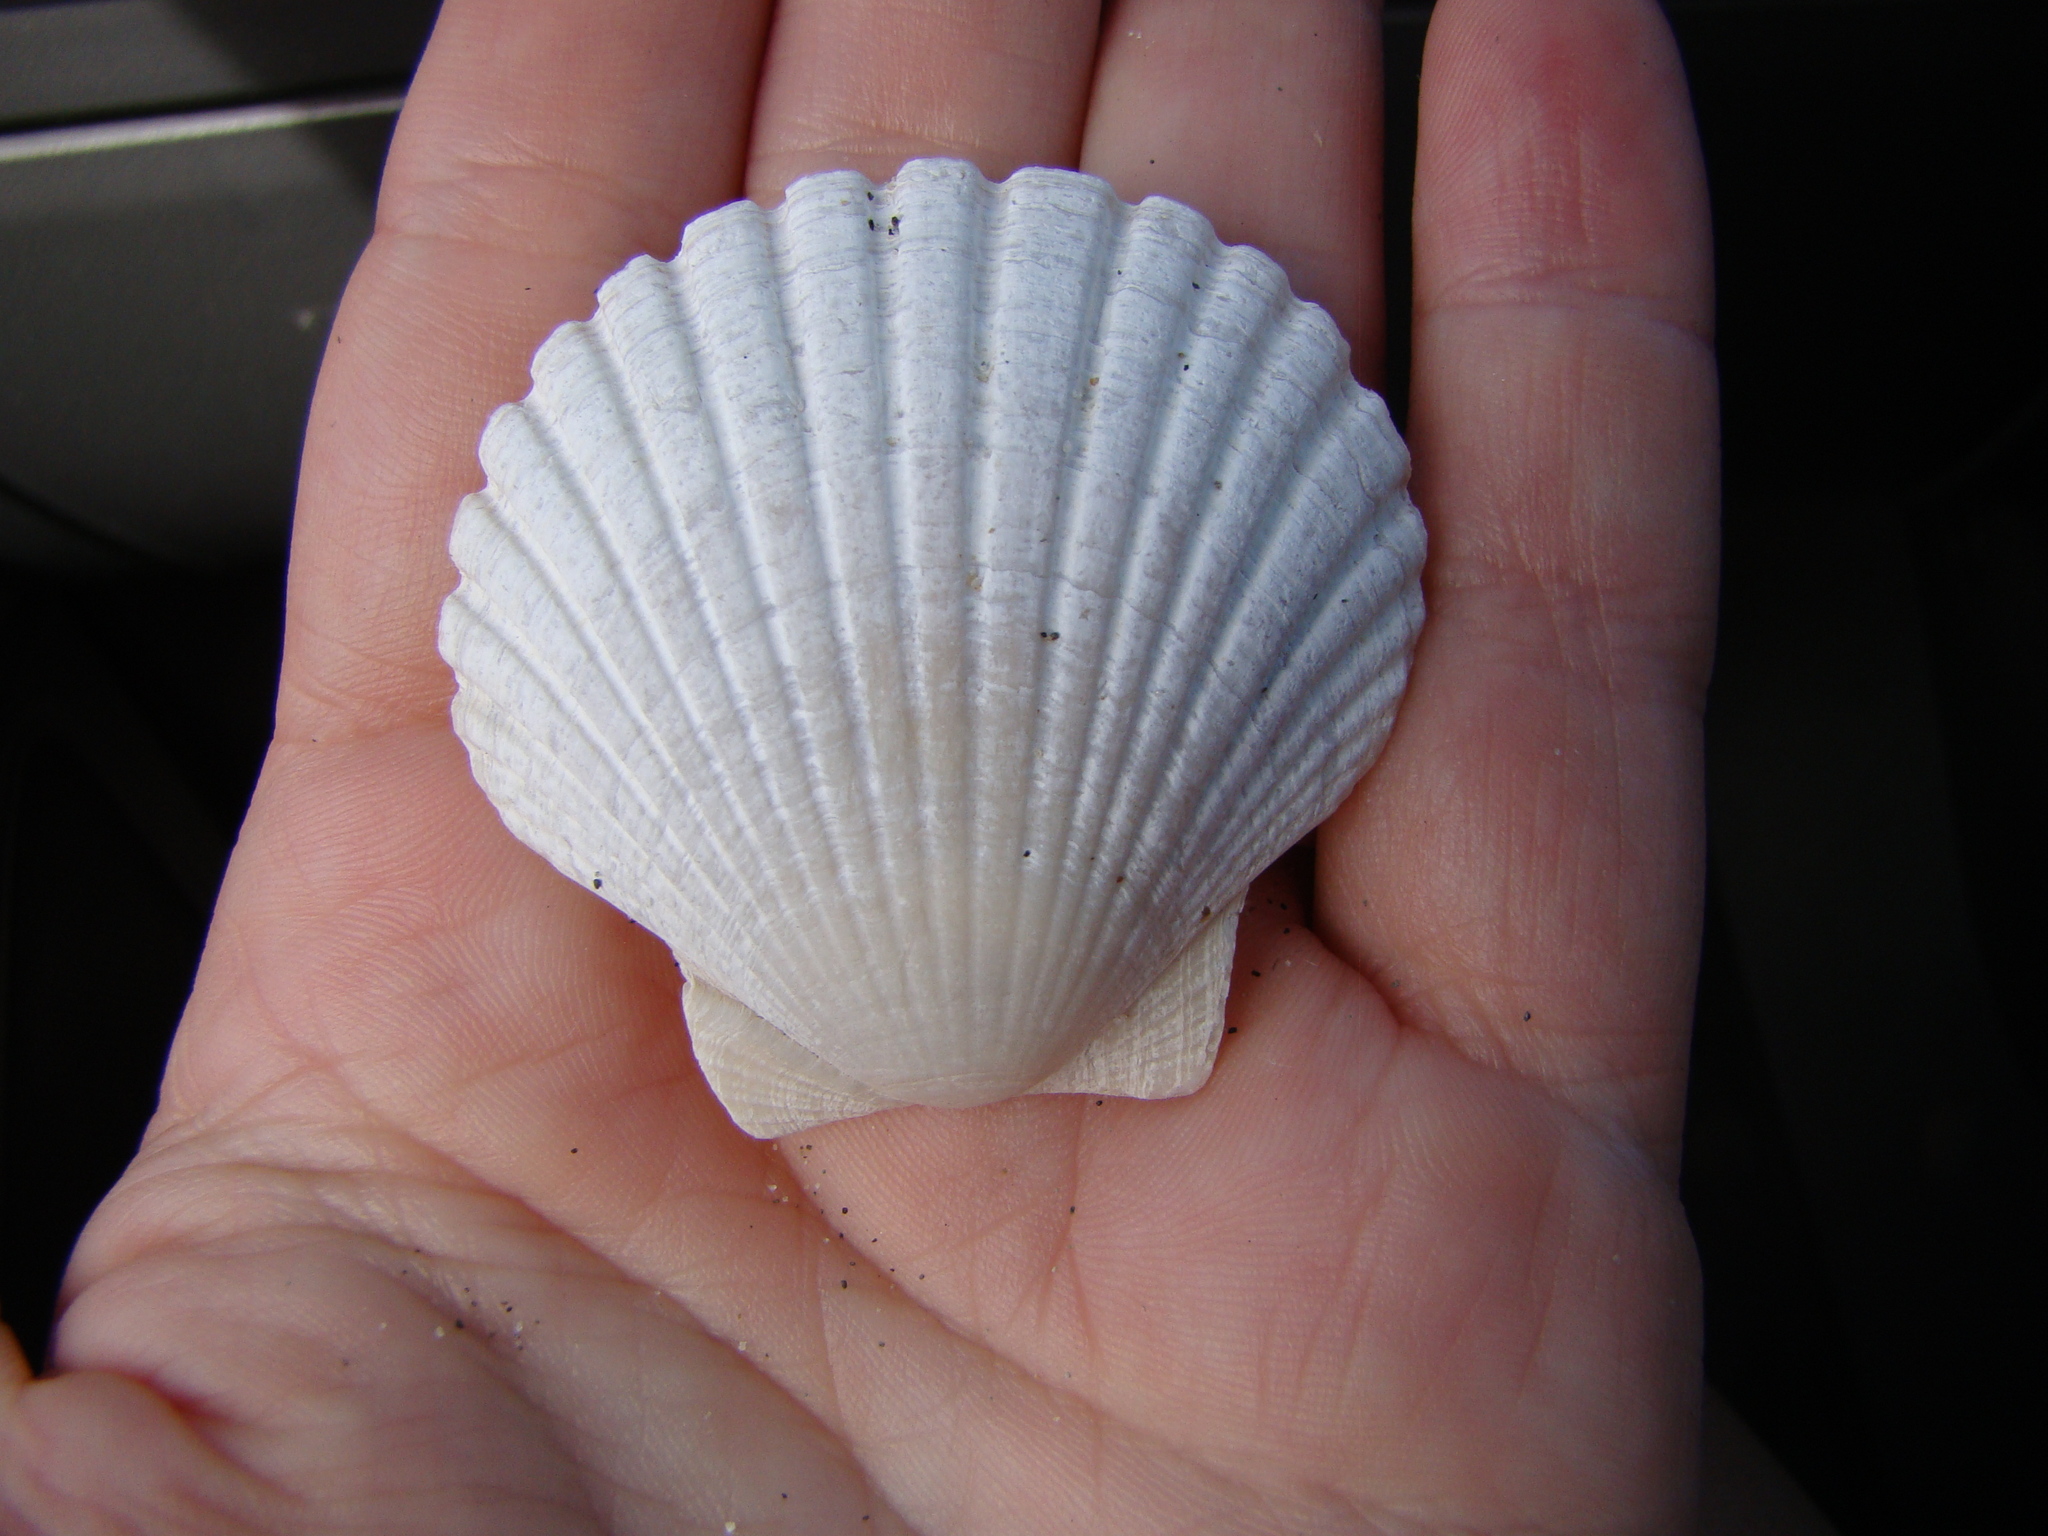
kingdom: Animalia
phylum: Mollusca
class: Bivalvia
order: Pectinida
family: Pectinidae
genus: Pecten
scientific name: Pecten novaezelandiae
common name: New zealand scallop
